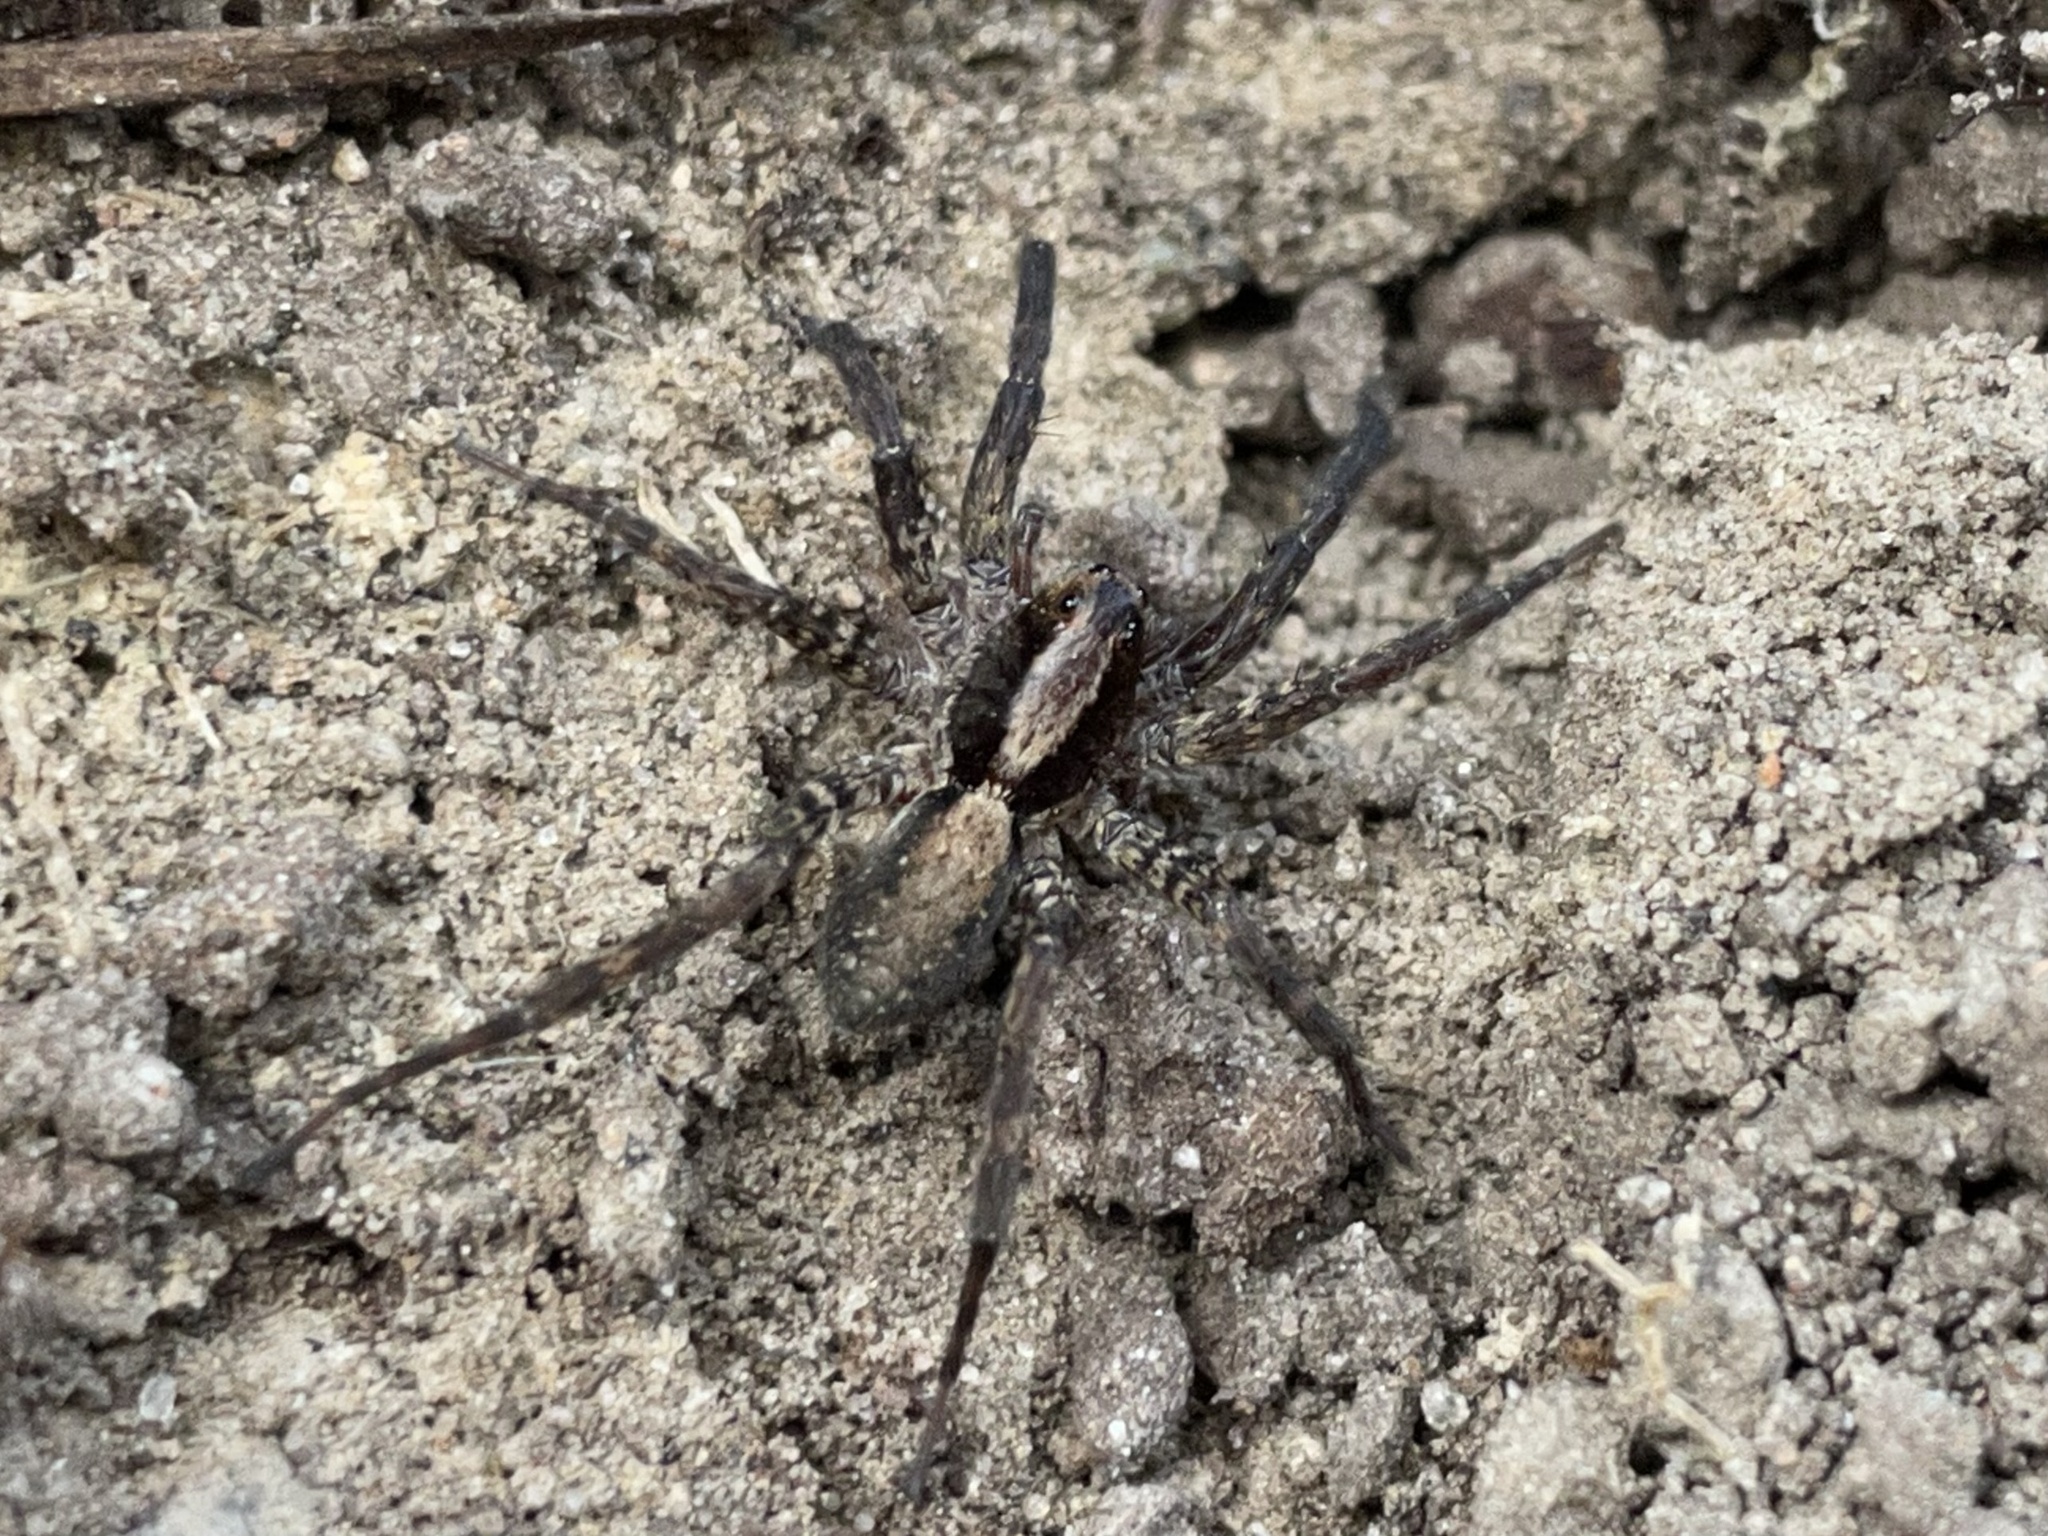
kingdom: Animalia
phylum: Arthropoda
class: Arachnida
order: Araneae
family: Lycosidae
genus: Schizocosa
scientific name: Schizocosa stridulans
